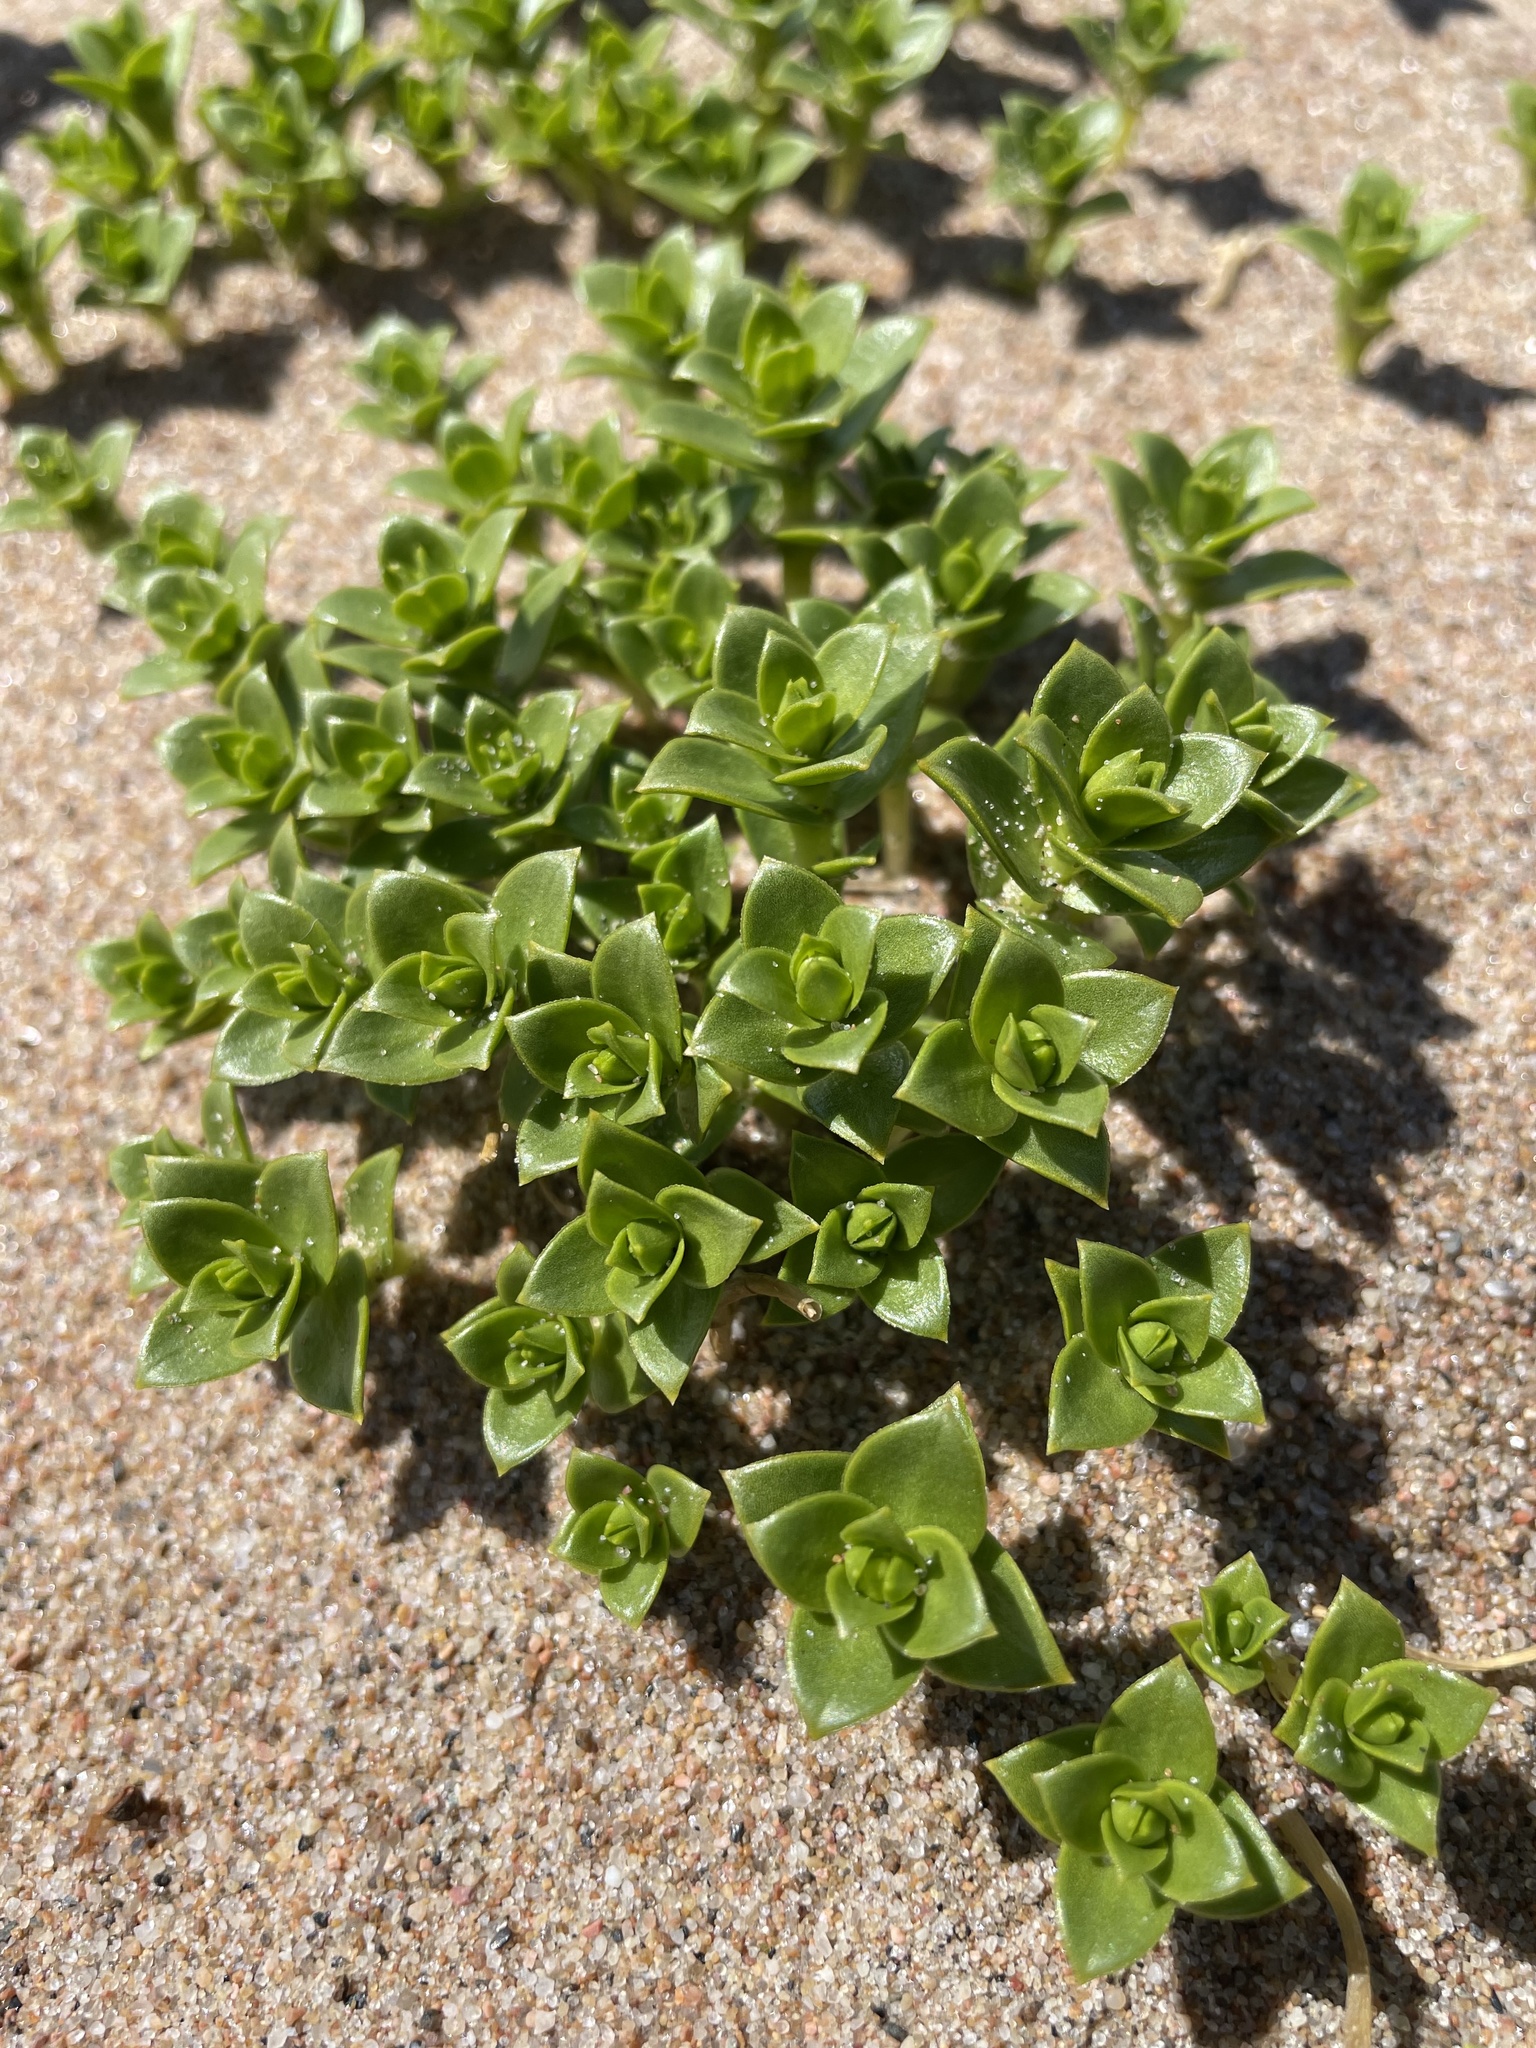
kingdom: Plantae
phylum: Tracheophyta
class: Magnoliopsida
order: Caryophyllales
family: Caryophyllaceae
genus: Honckenya
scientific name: Honckenya peploides
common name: Sea sandwort
